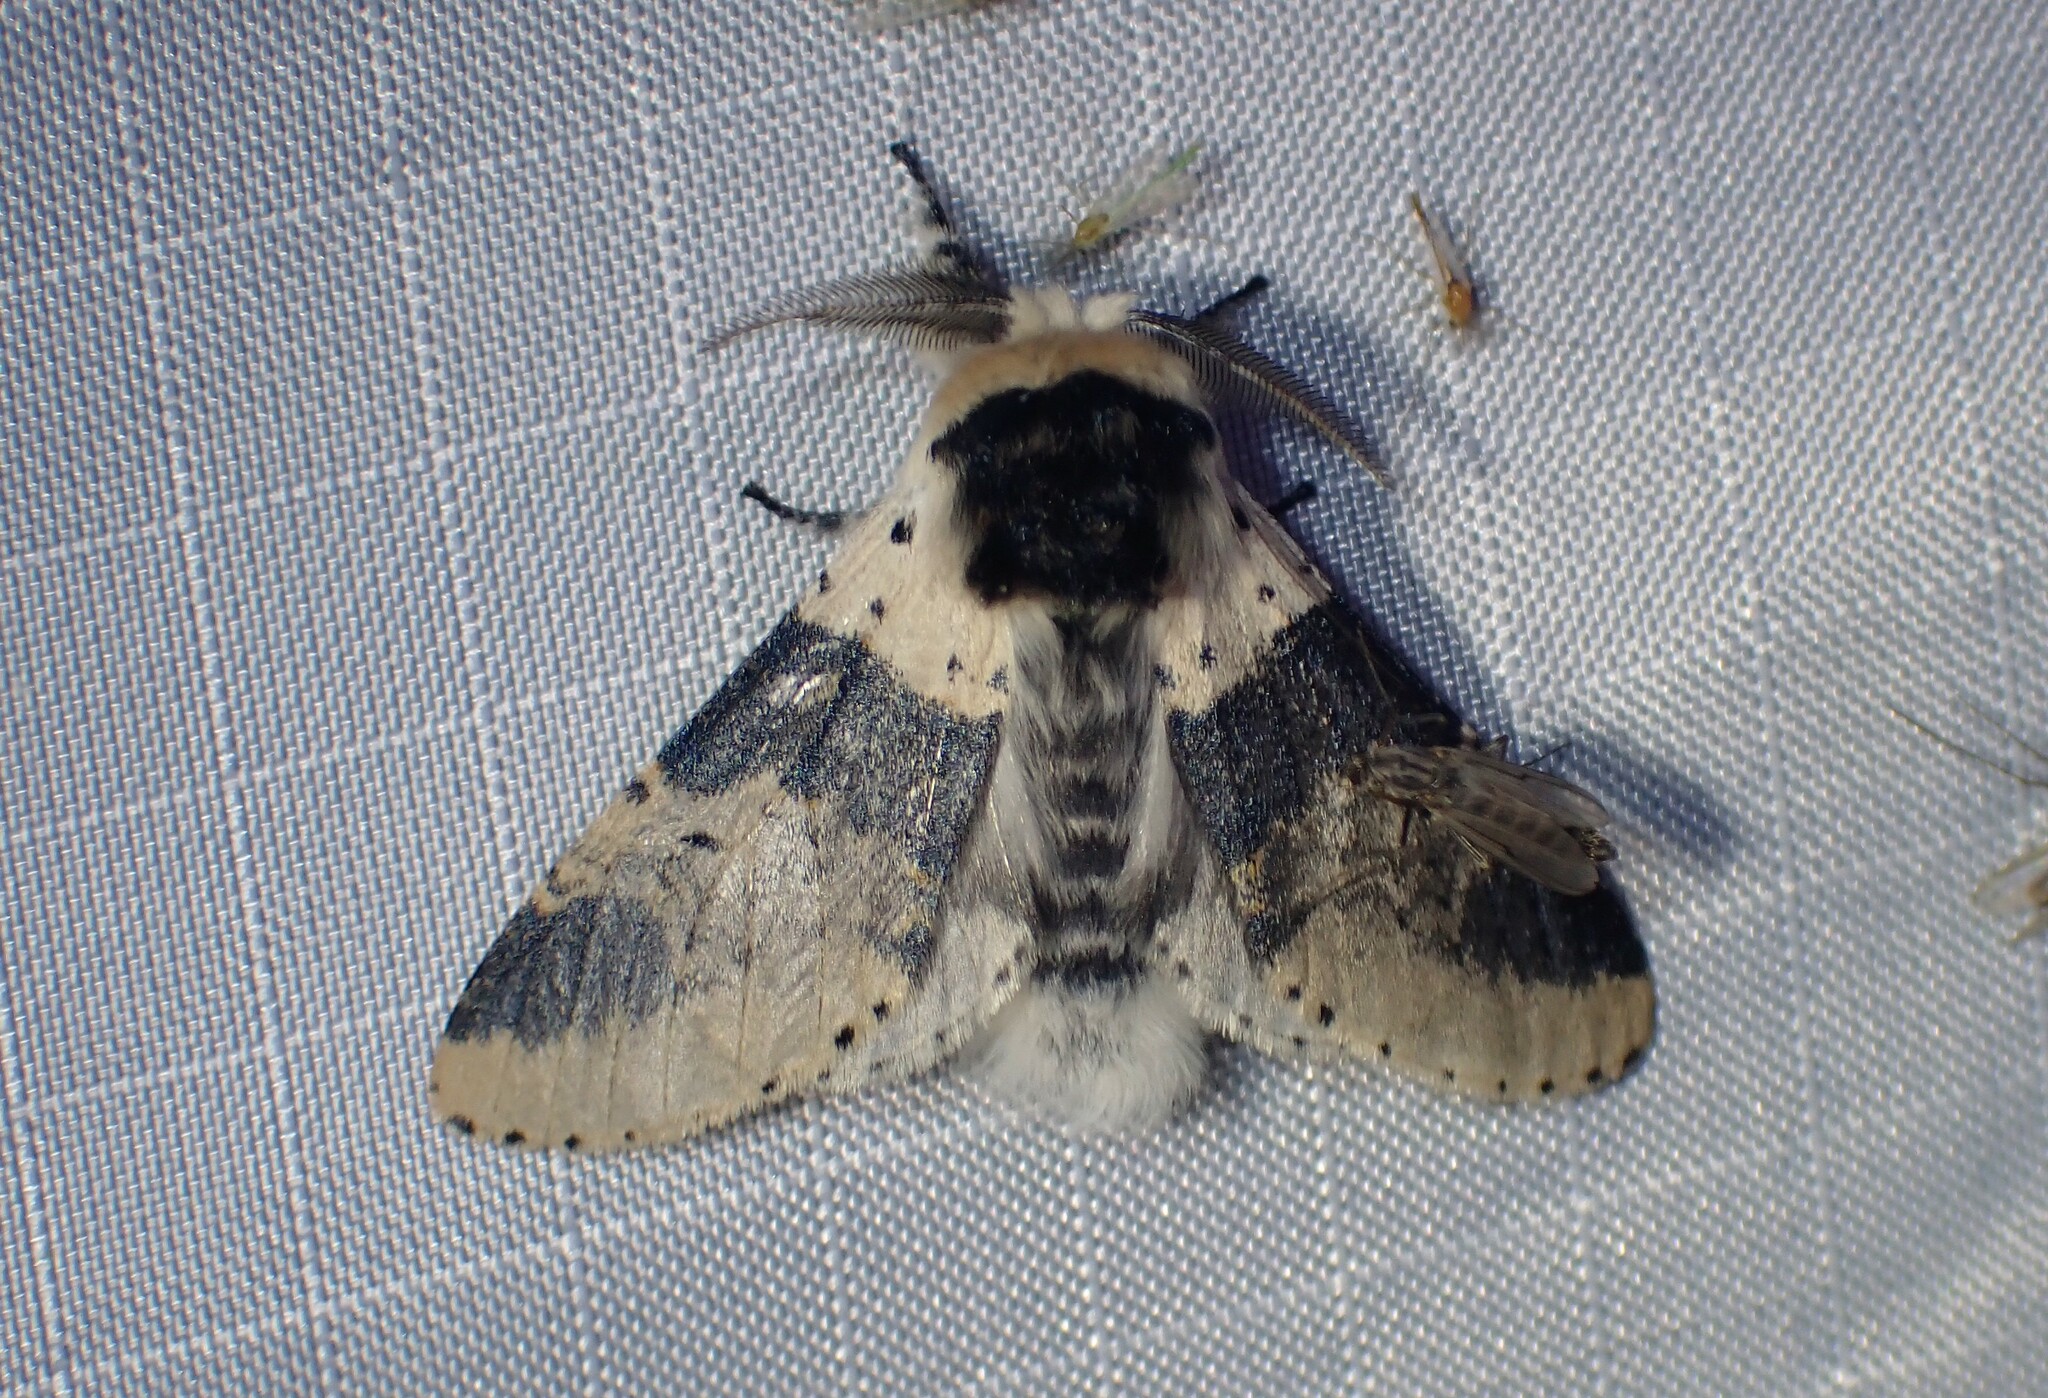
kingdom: Animalia
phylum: Arthropoda
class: Insecta
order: Lepidoptera
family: Notodontidae
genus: Furcula
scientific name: Furcula modesta
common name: Modest furcula moth
